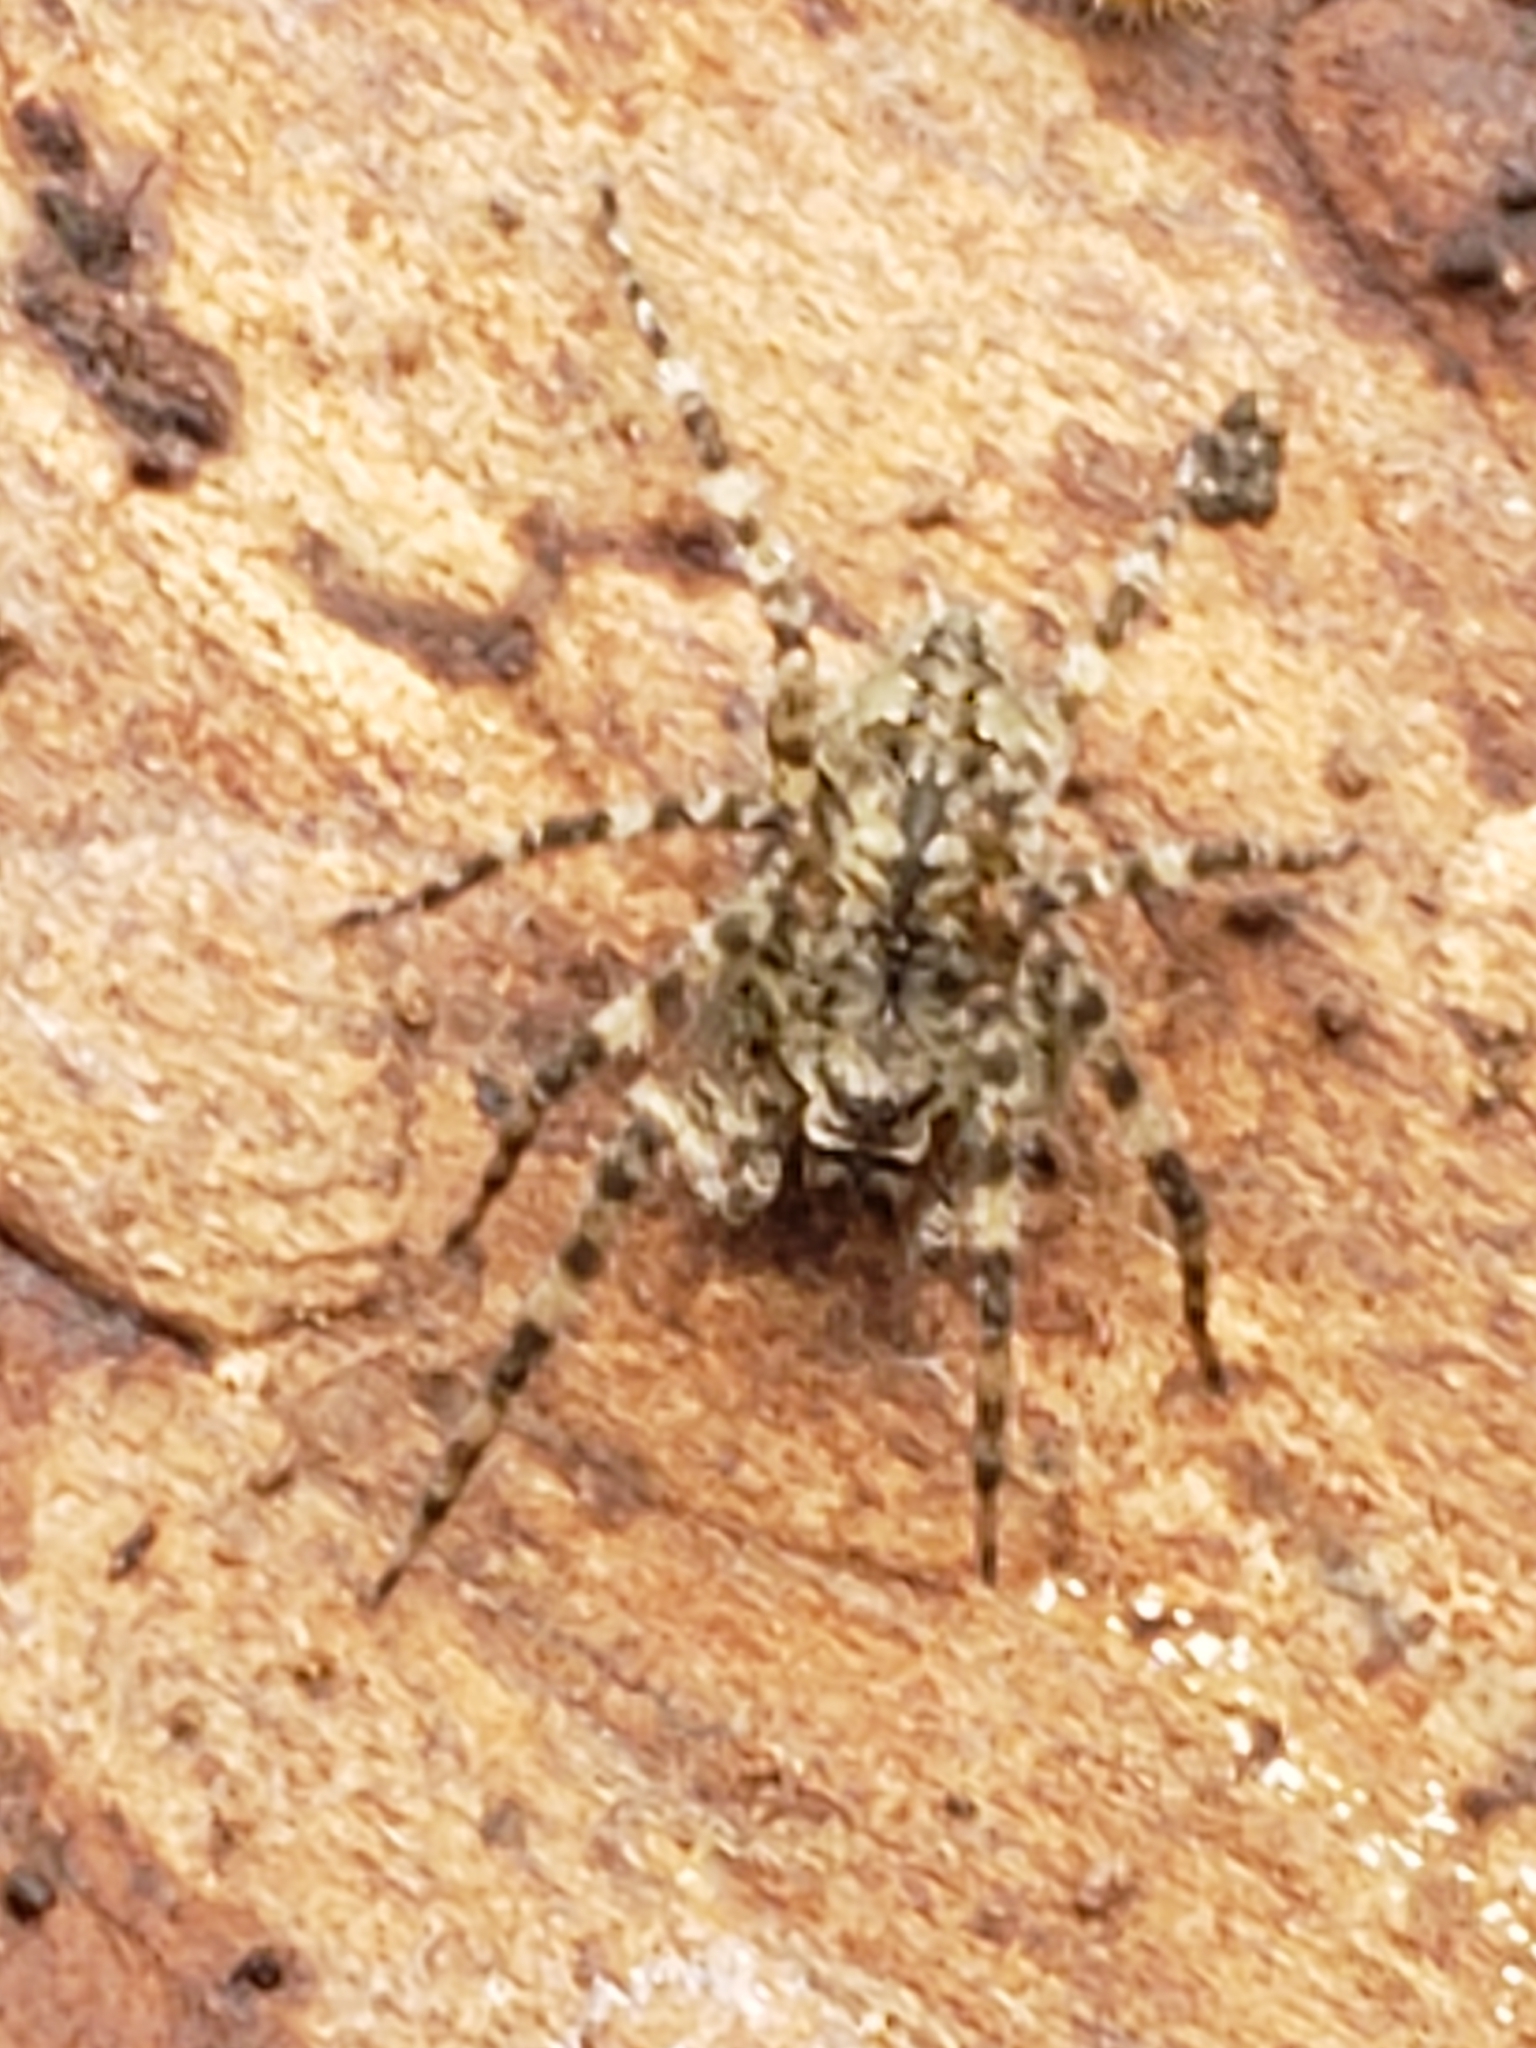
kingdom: Animalia
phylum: Arthropoda
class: Arachnida
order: Araneae
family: Pisauridae
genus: Dolomedes
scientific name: Dolomedes albineus
